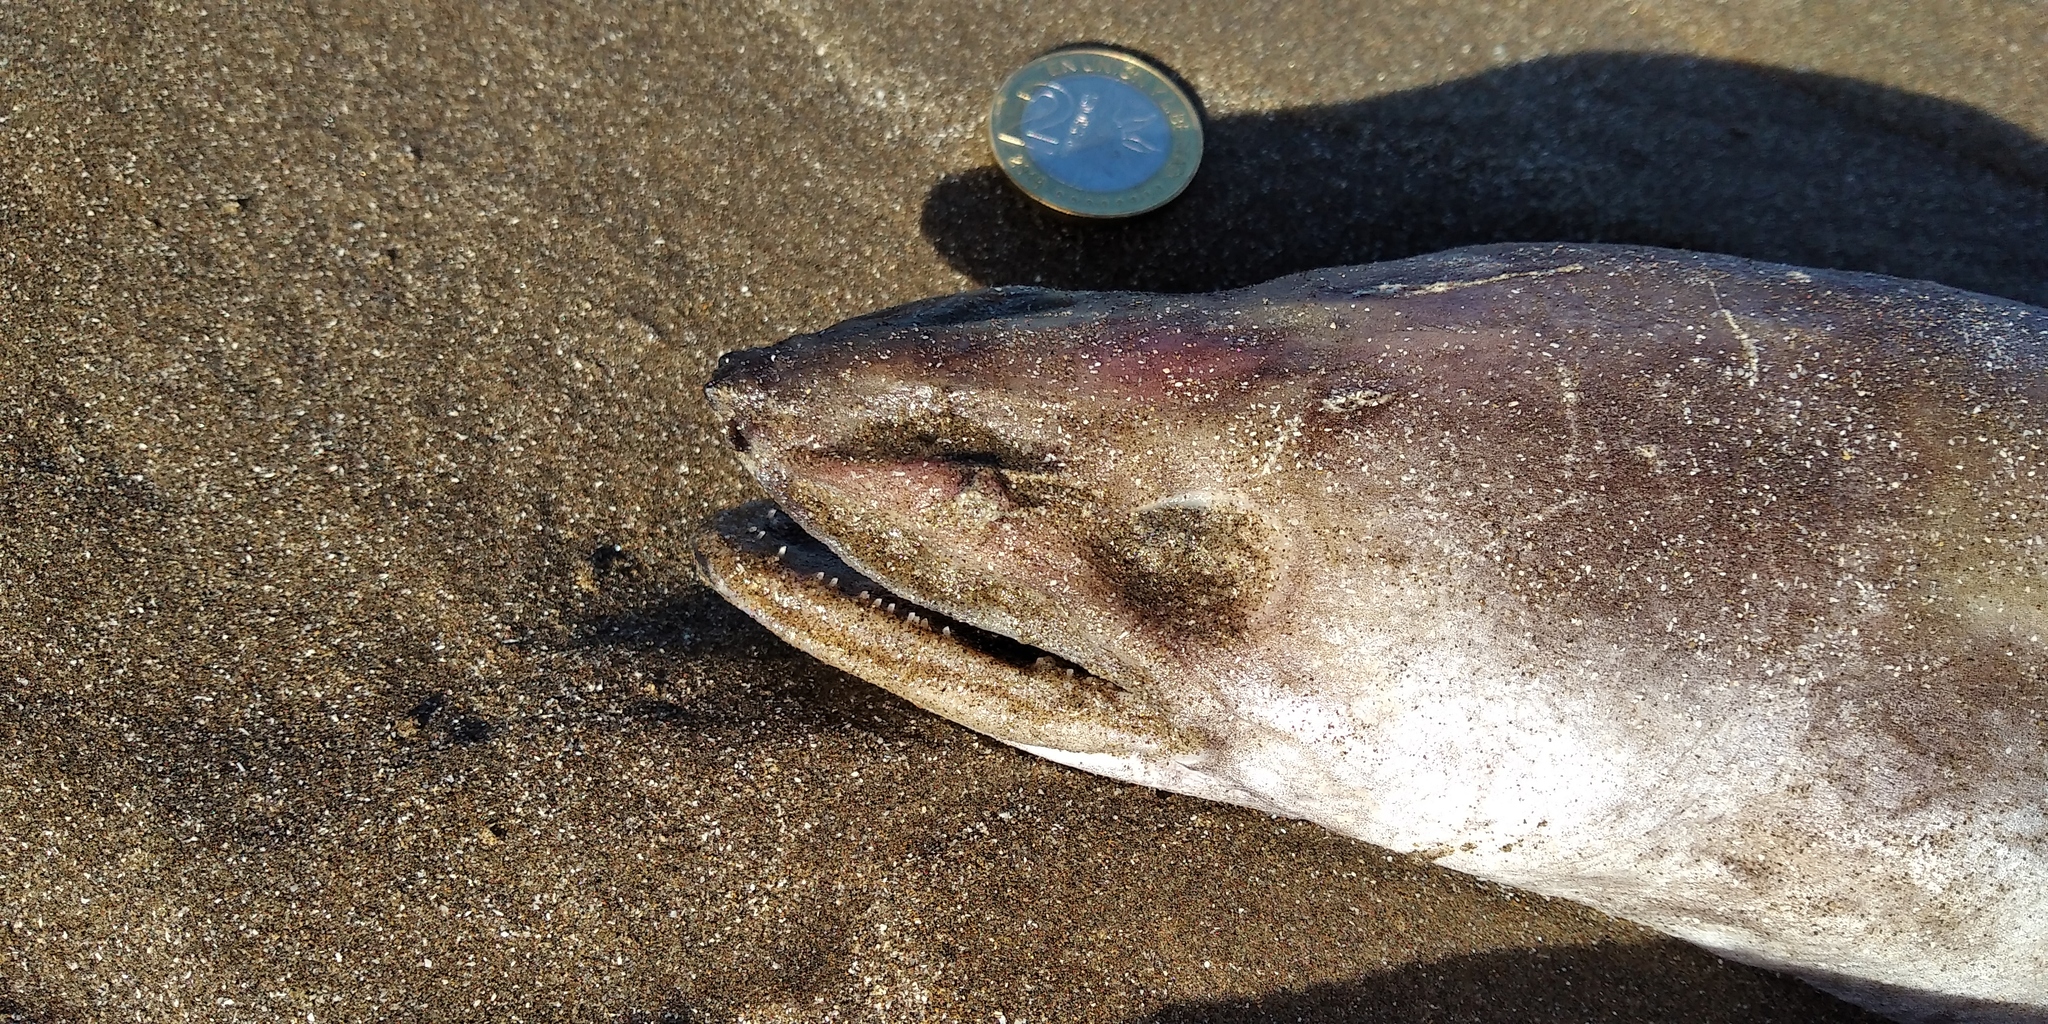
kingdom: Animalia
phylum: Chordata
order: Anguilliformes
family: Congridae
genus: Conger
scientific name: Conger orbignianus
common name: Argentine conger
